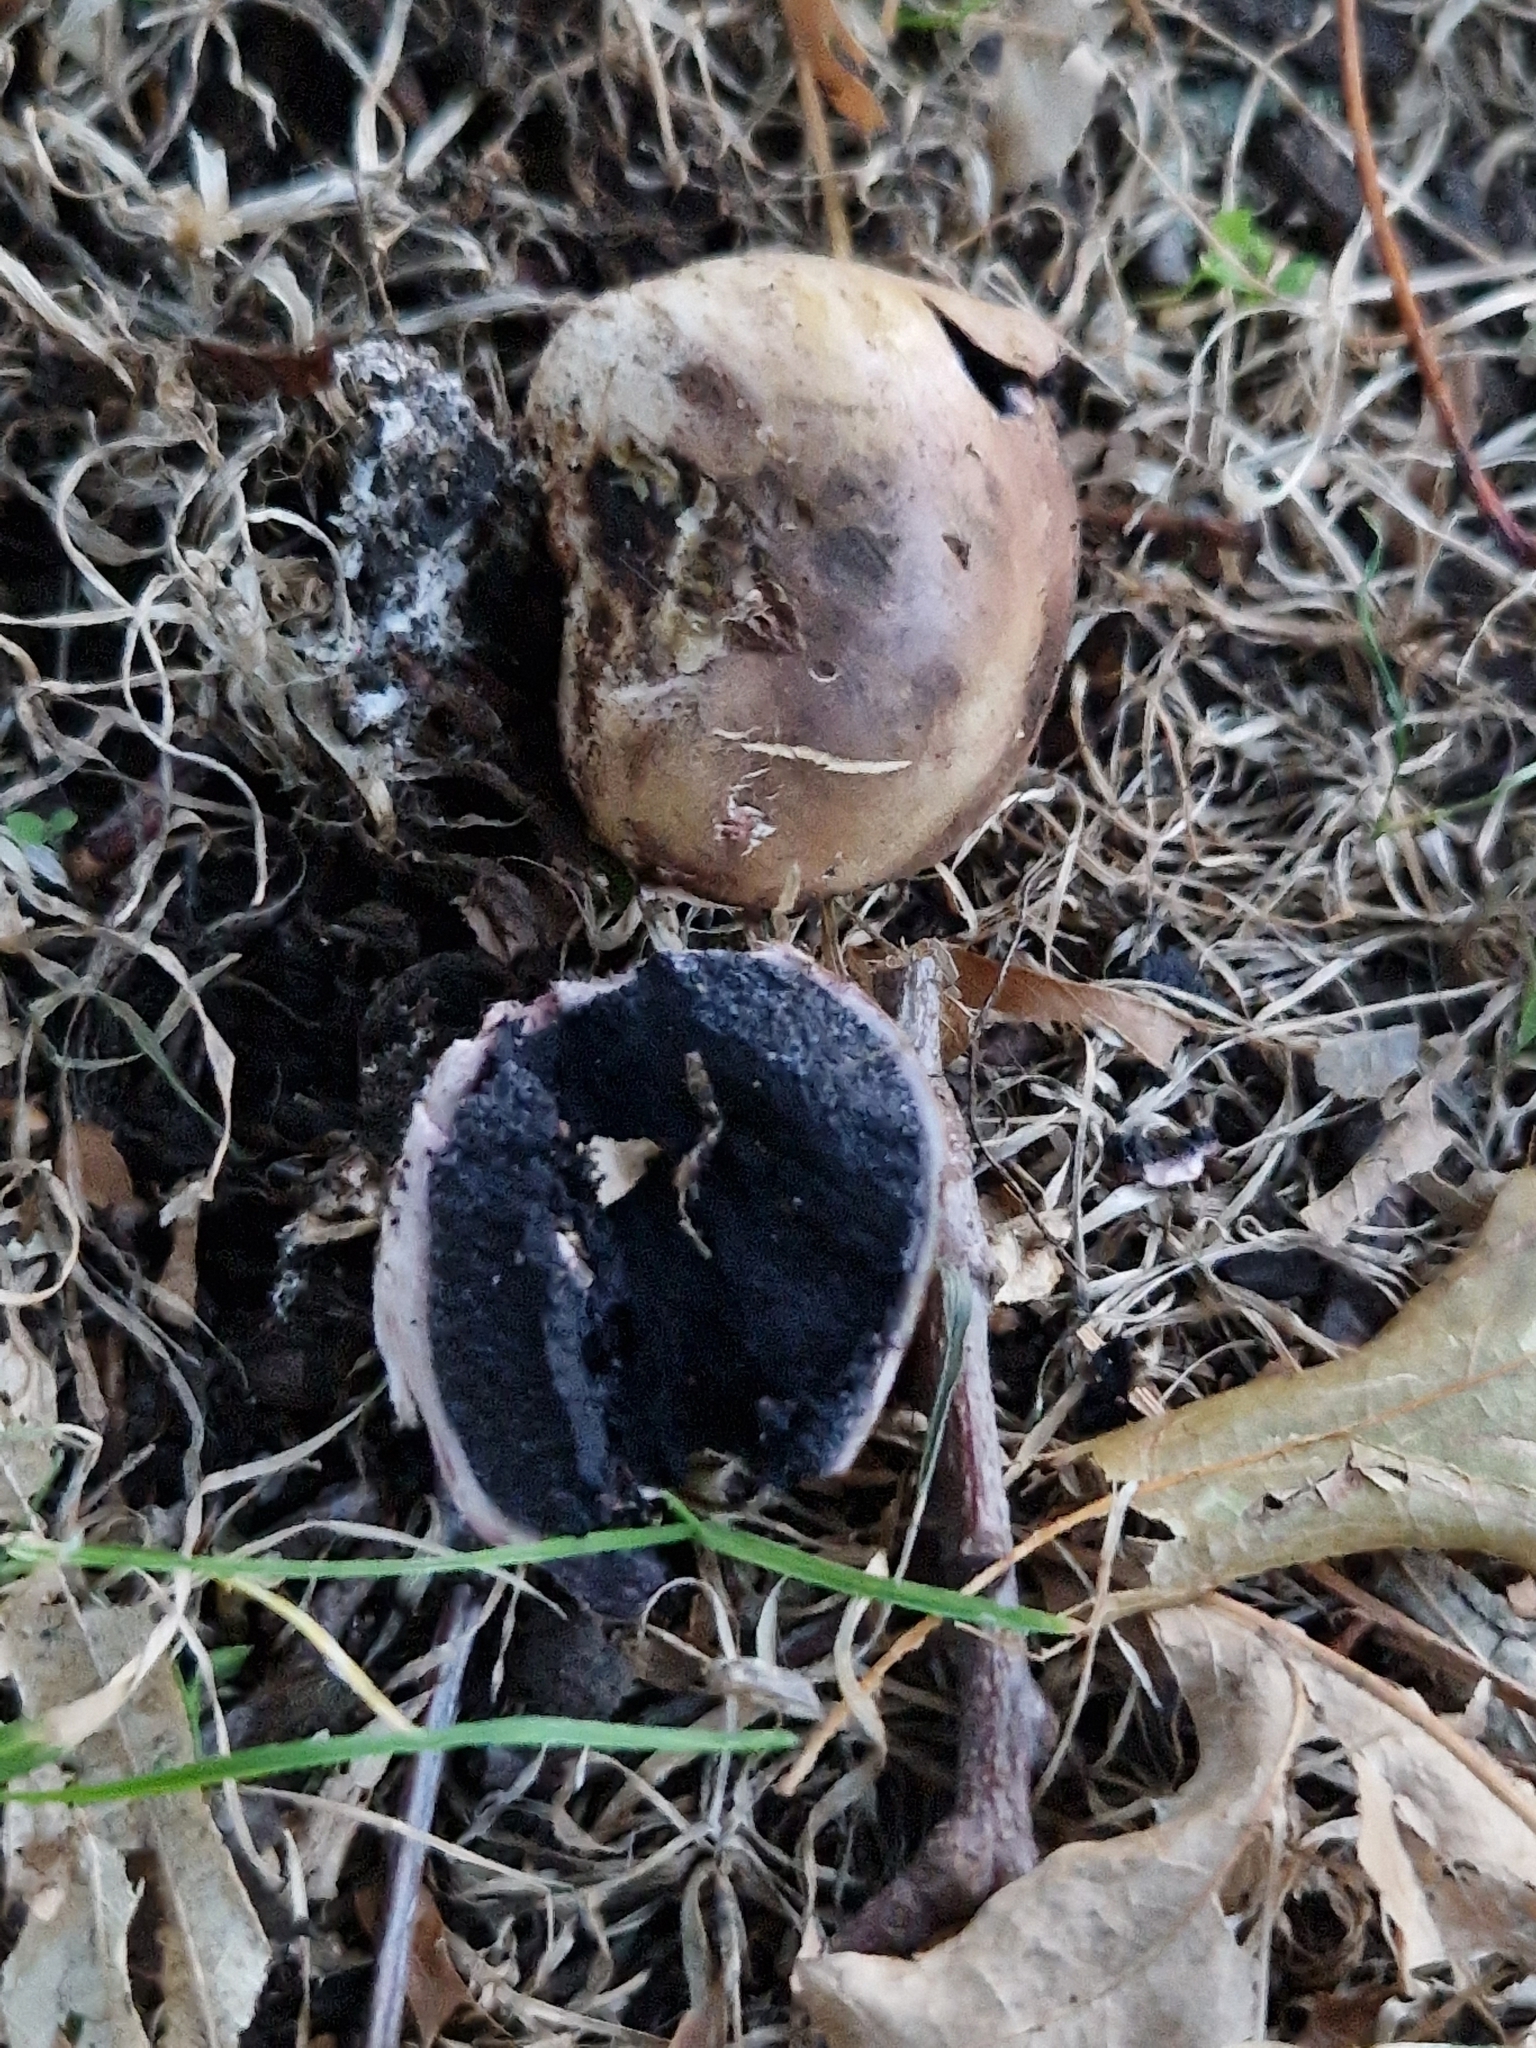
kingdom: Fungi
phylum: Basidiomycota
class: Agaricomycetes
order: Boletales
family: Sclerodermataceae
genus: Scleroderma
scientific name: Scleroderma citrinum
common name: Common earthball
